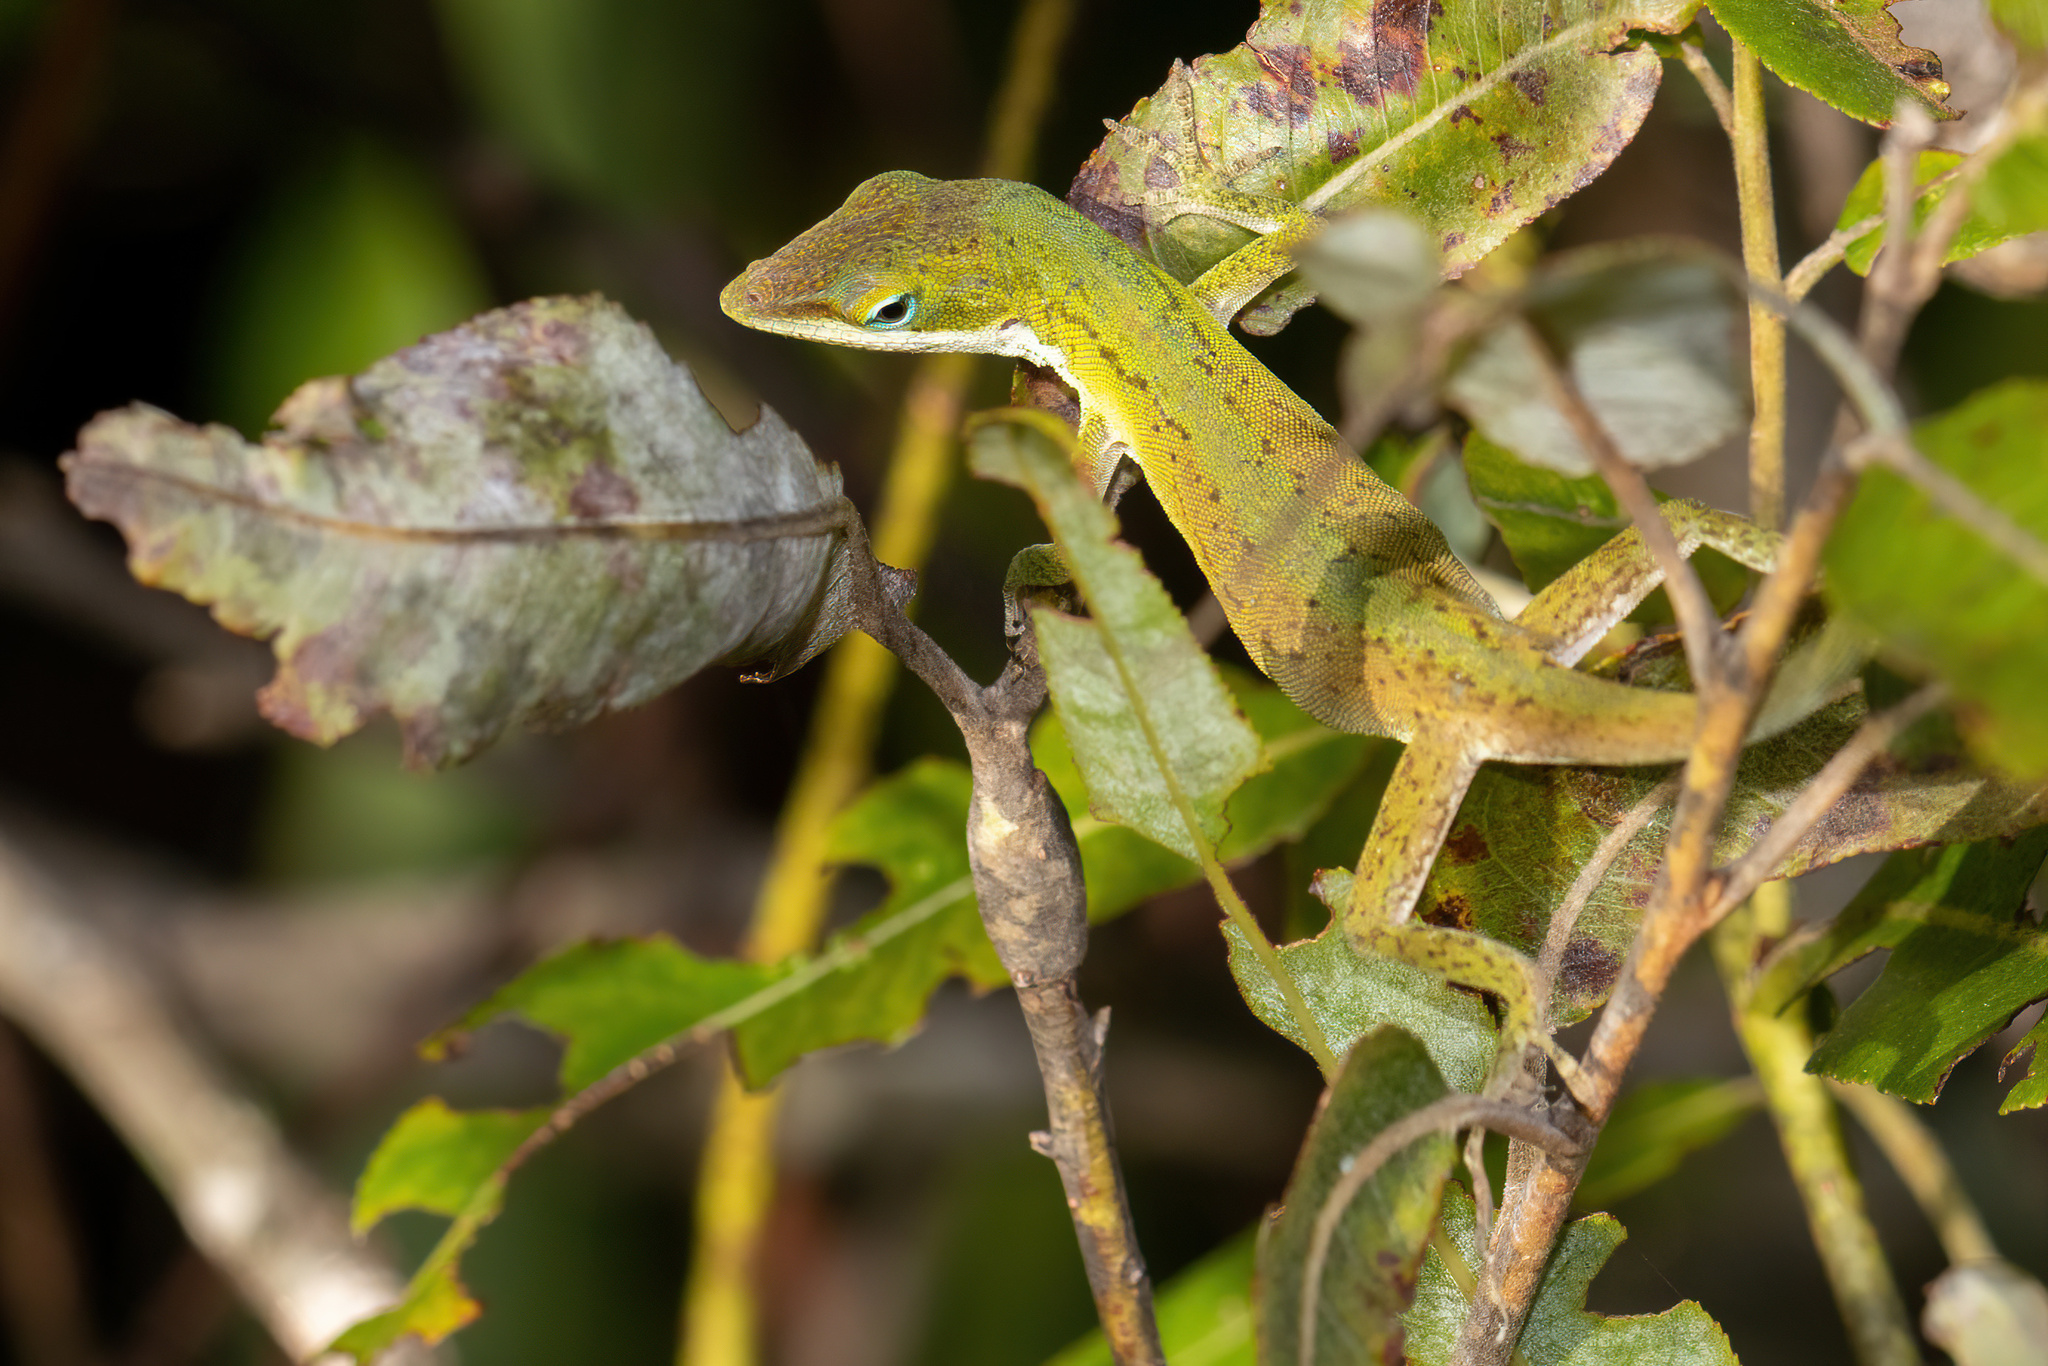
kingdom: Animalia
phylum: Chordata
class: Squamata
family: Dactyloidae
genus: Anolis
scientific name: Anolis carolinensis
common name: Green anole
